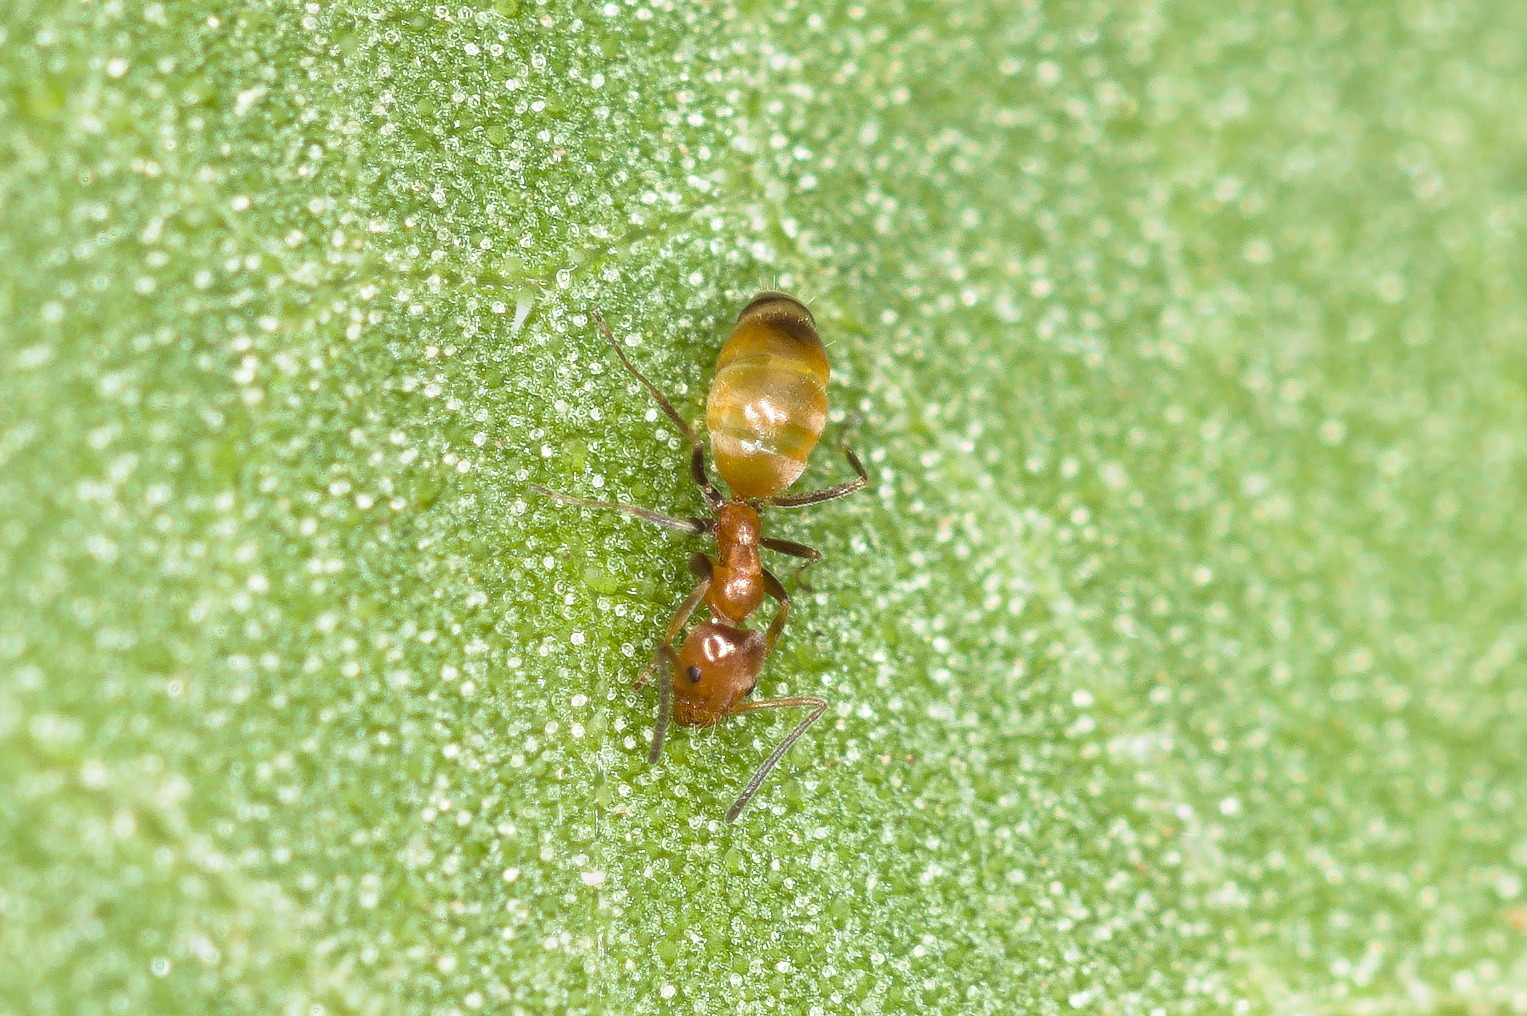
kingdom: Animalia
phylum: Arthropoda
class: Insecta
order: Hymenoptera
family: Formicidae
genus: Forelius
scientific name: Forelius
